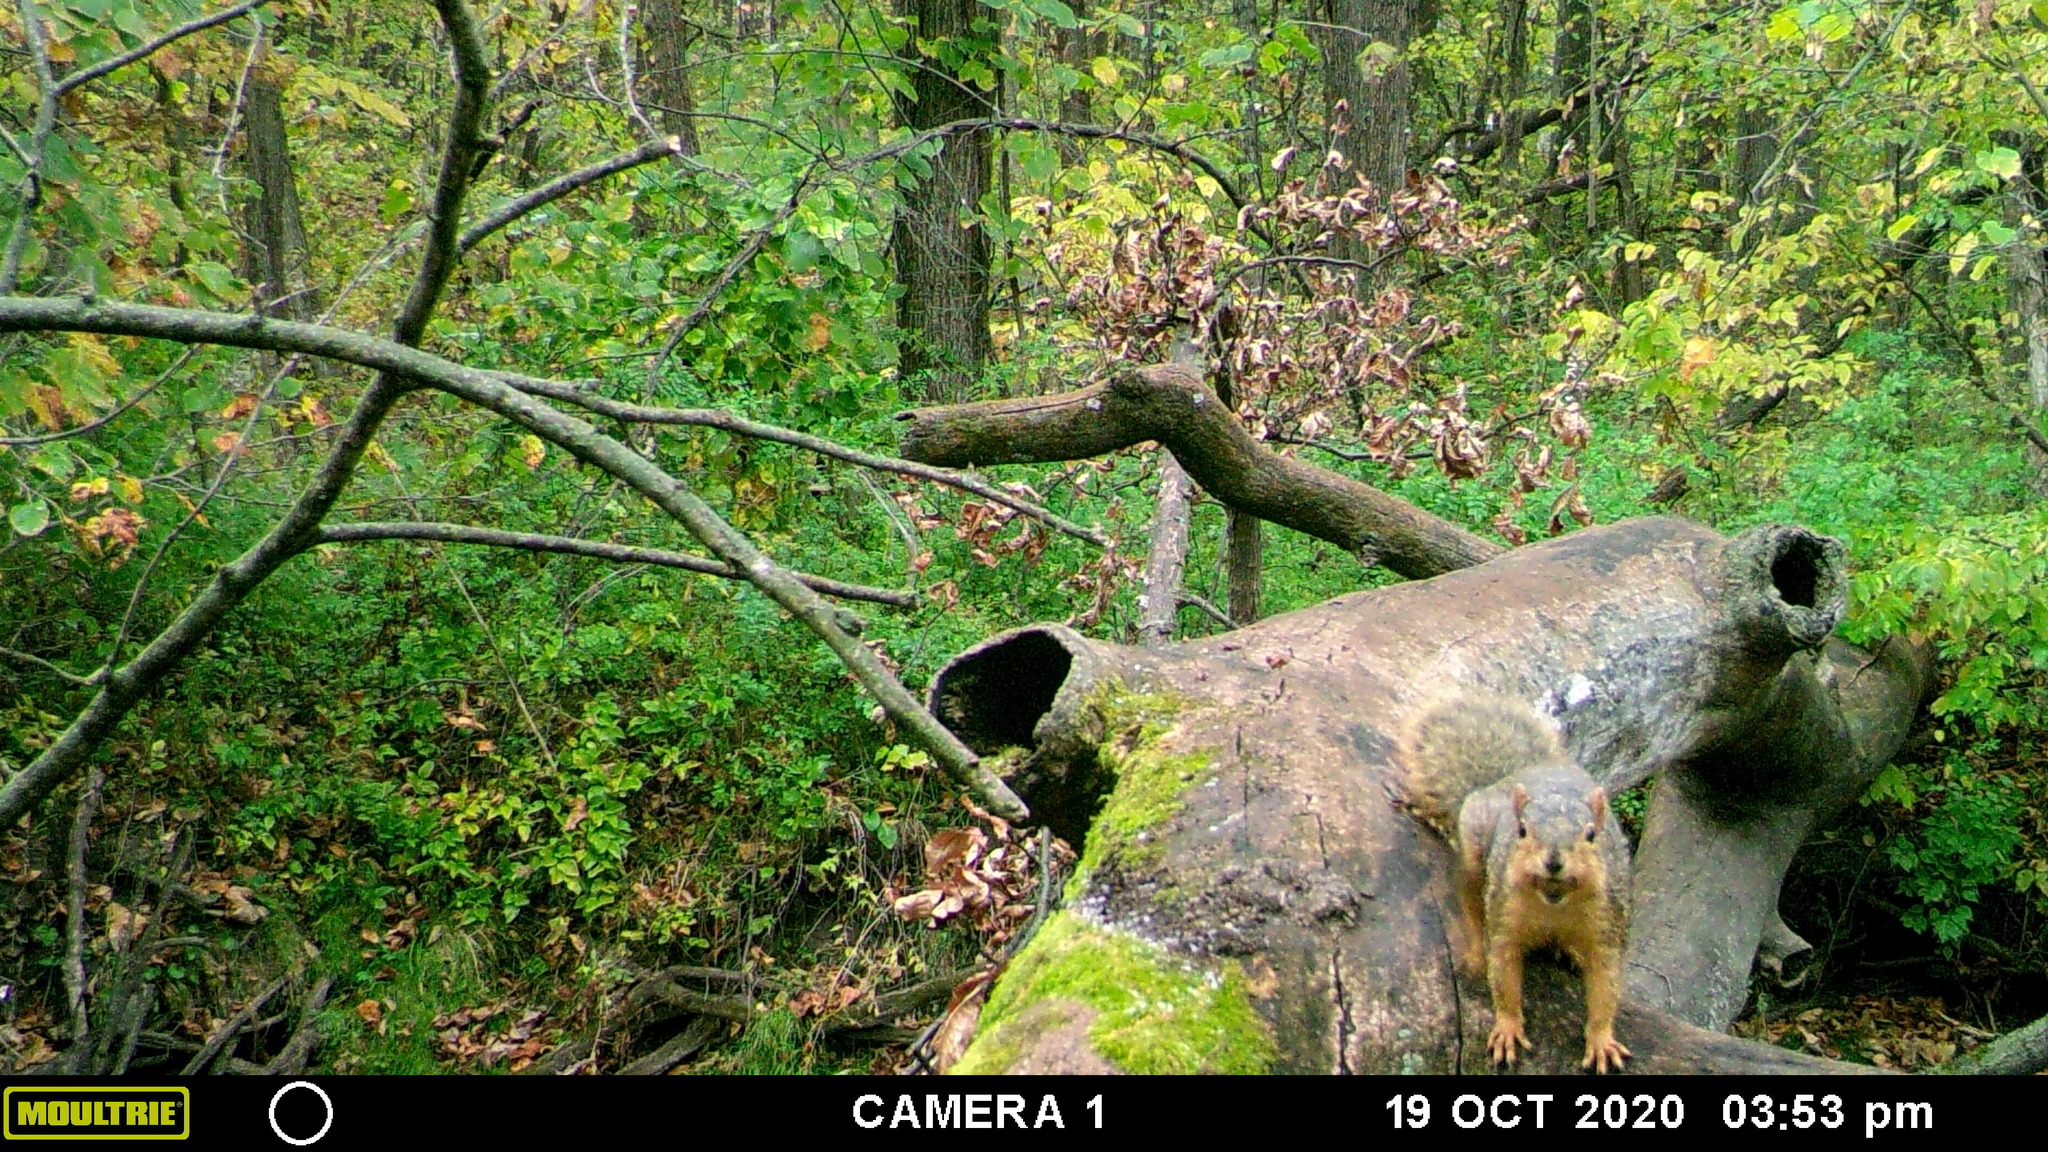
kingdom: Animalia
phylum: Chordata
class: Mammalia
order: Rodentia
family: Sciuridae
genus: Sciurus
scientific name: Sciurus niger
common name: Fox squirrel
